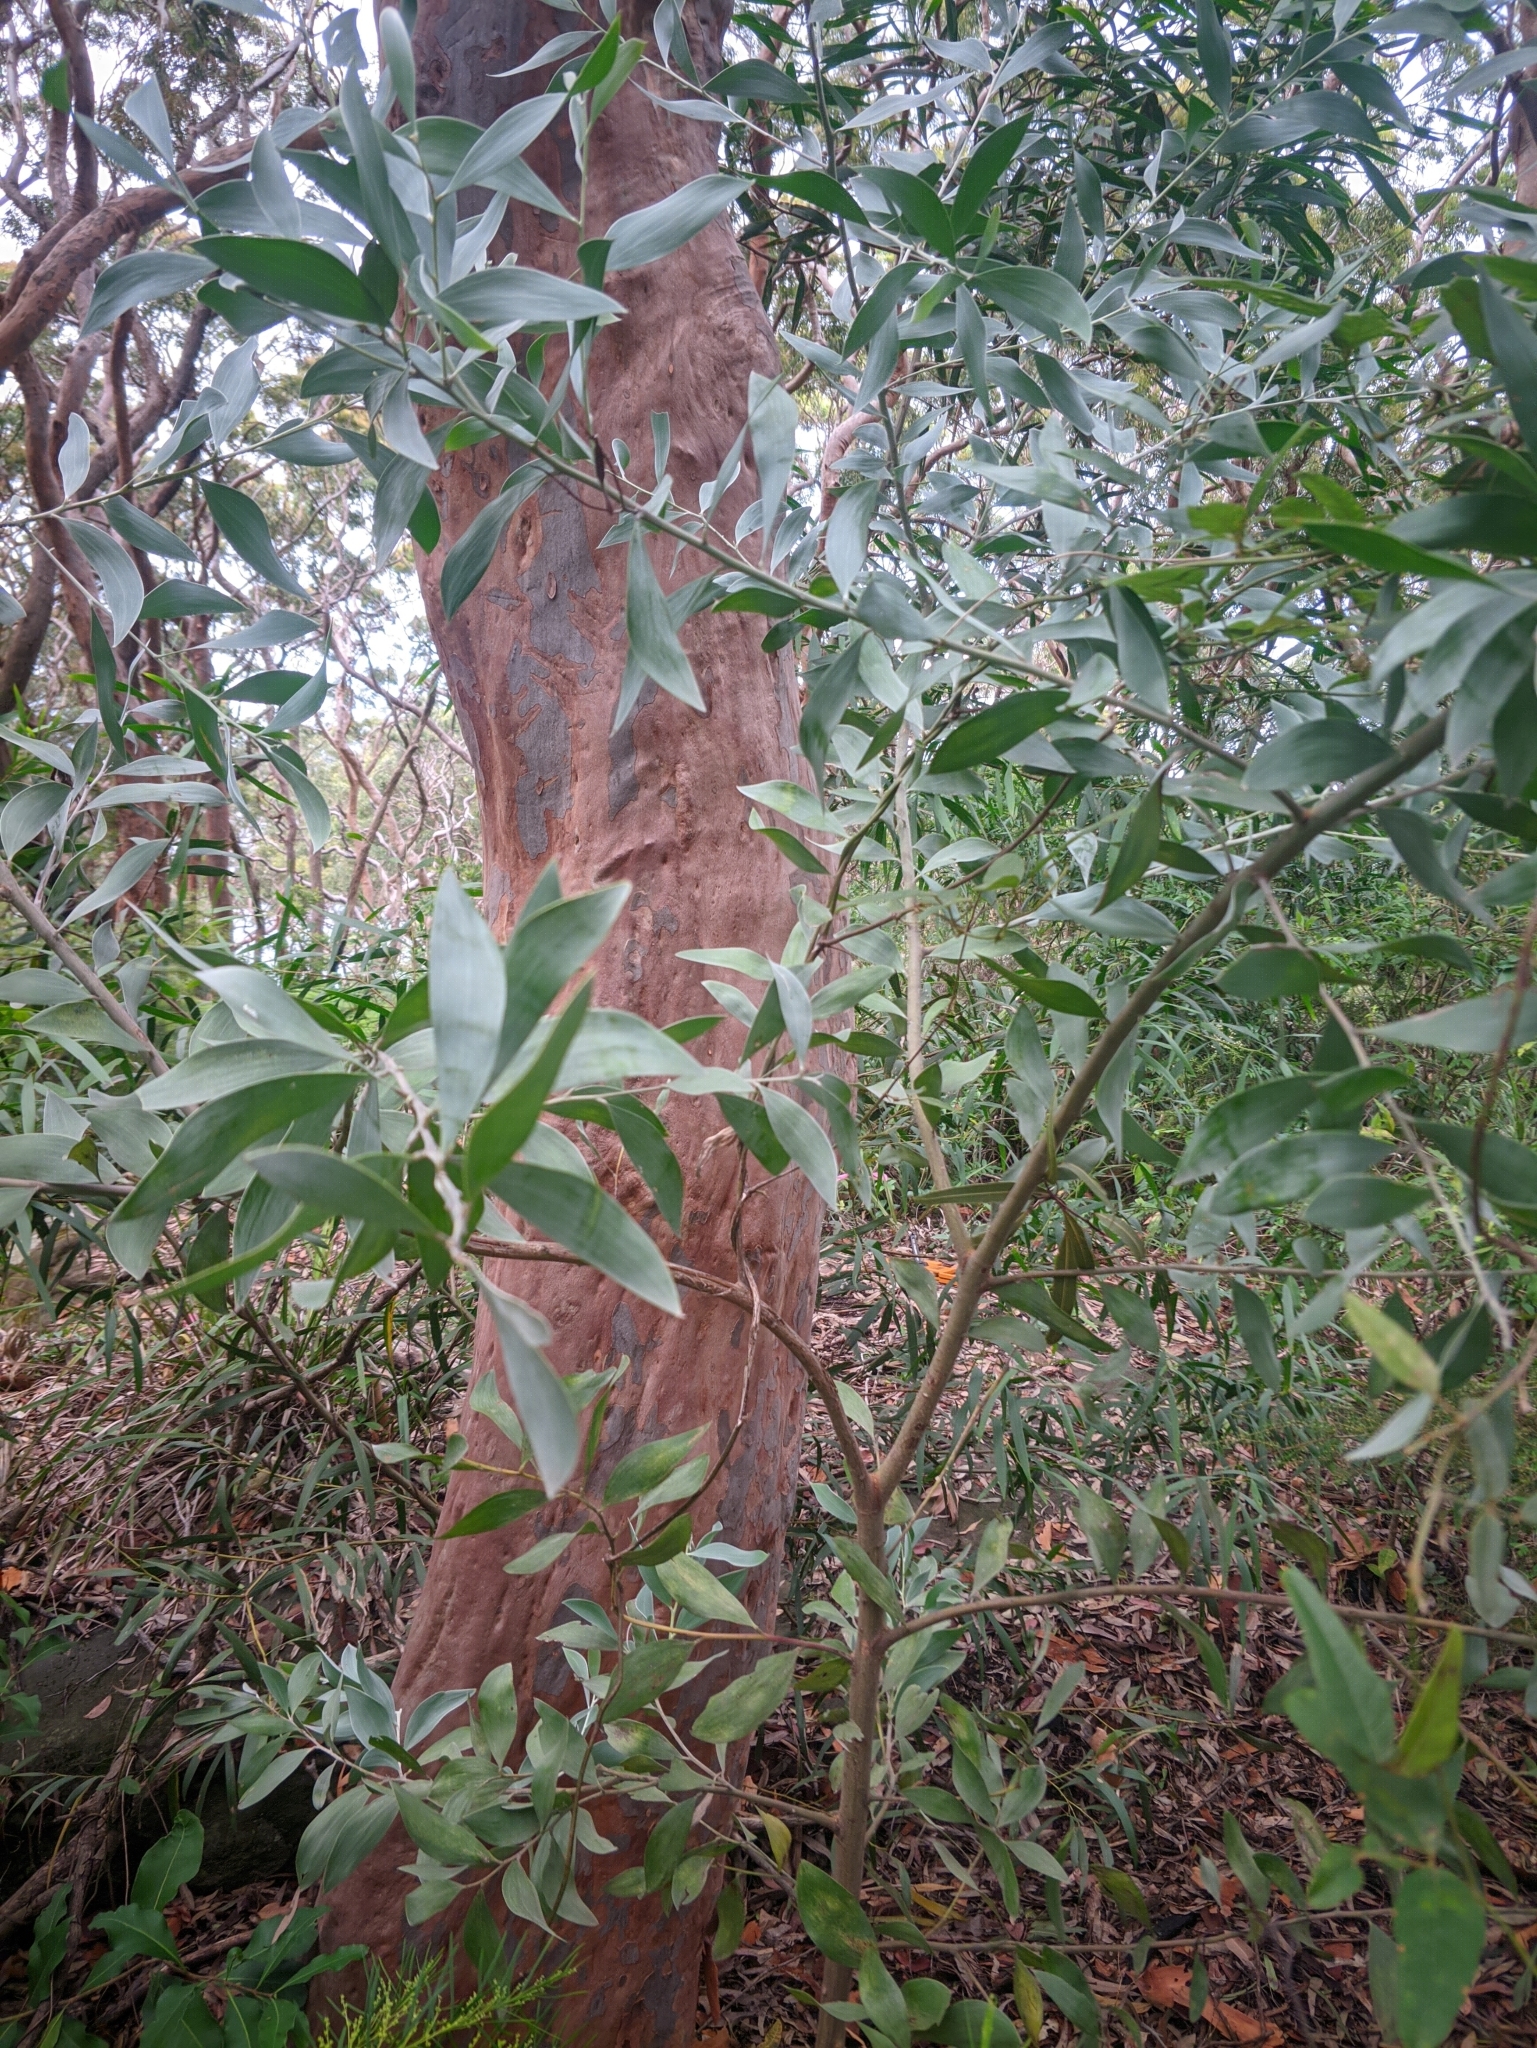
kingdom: Plantae
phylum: Tracheophyta
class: Magnoliopsida
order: Fabales
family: Fabaceae
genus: Acacia
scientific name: Acacia binervia
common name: Coast myall
